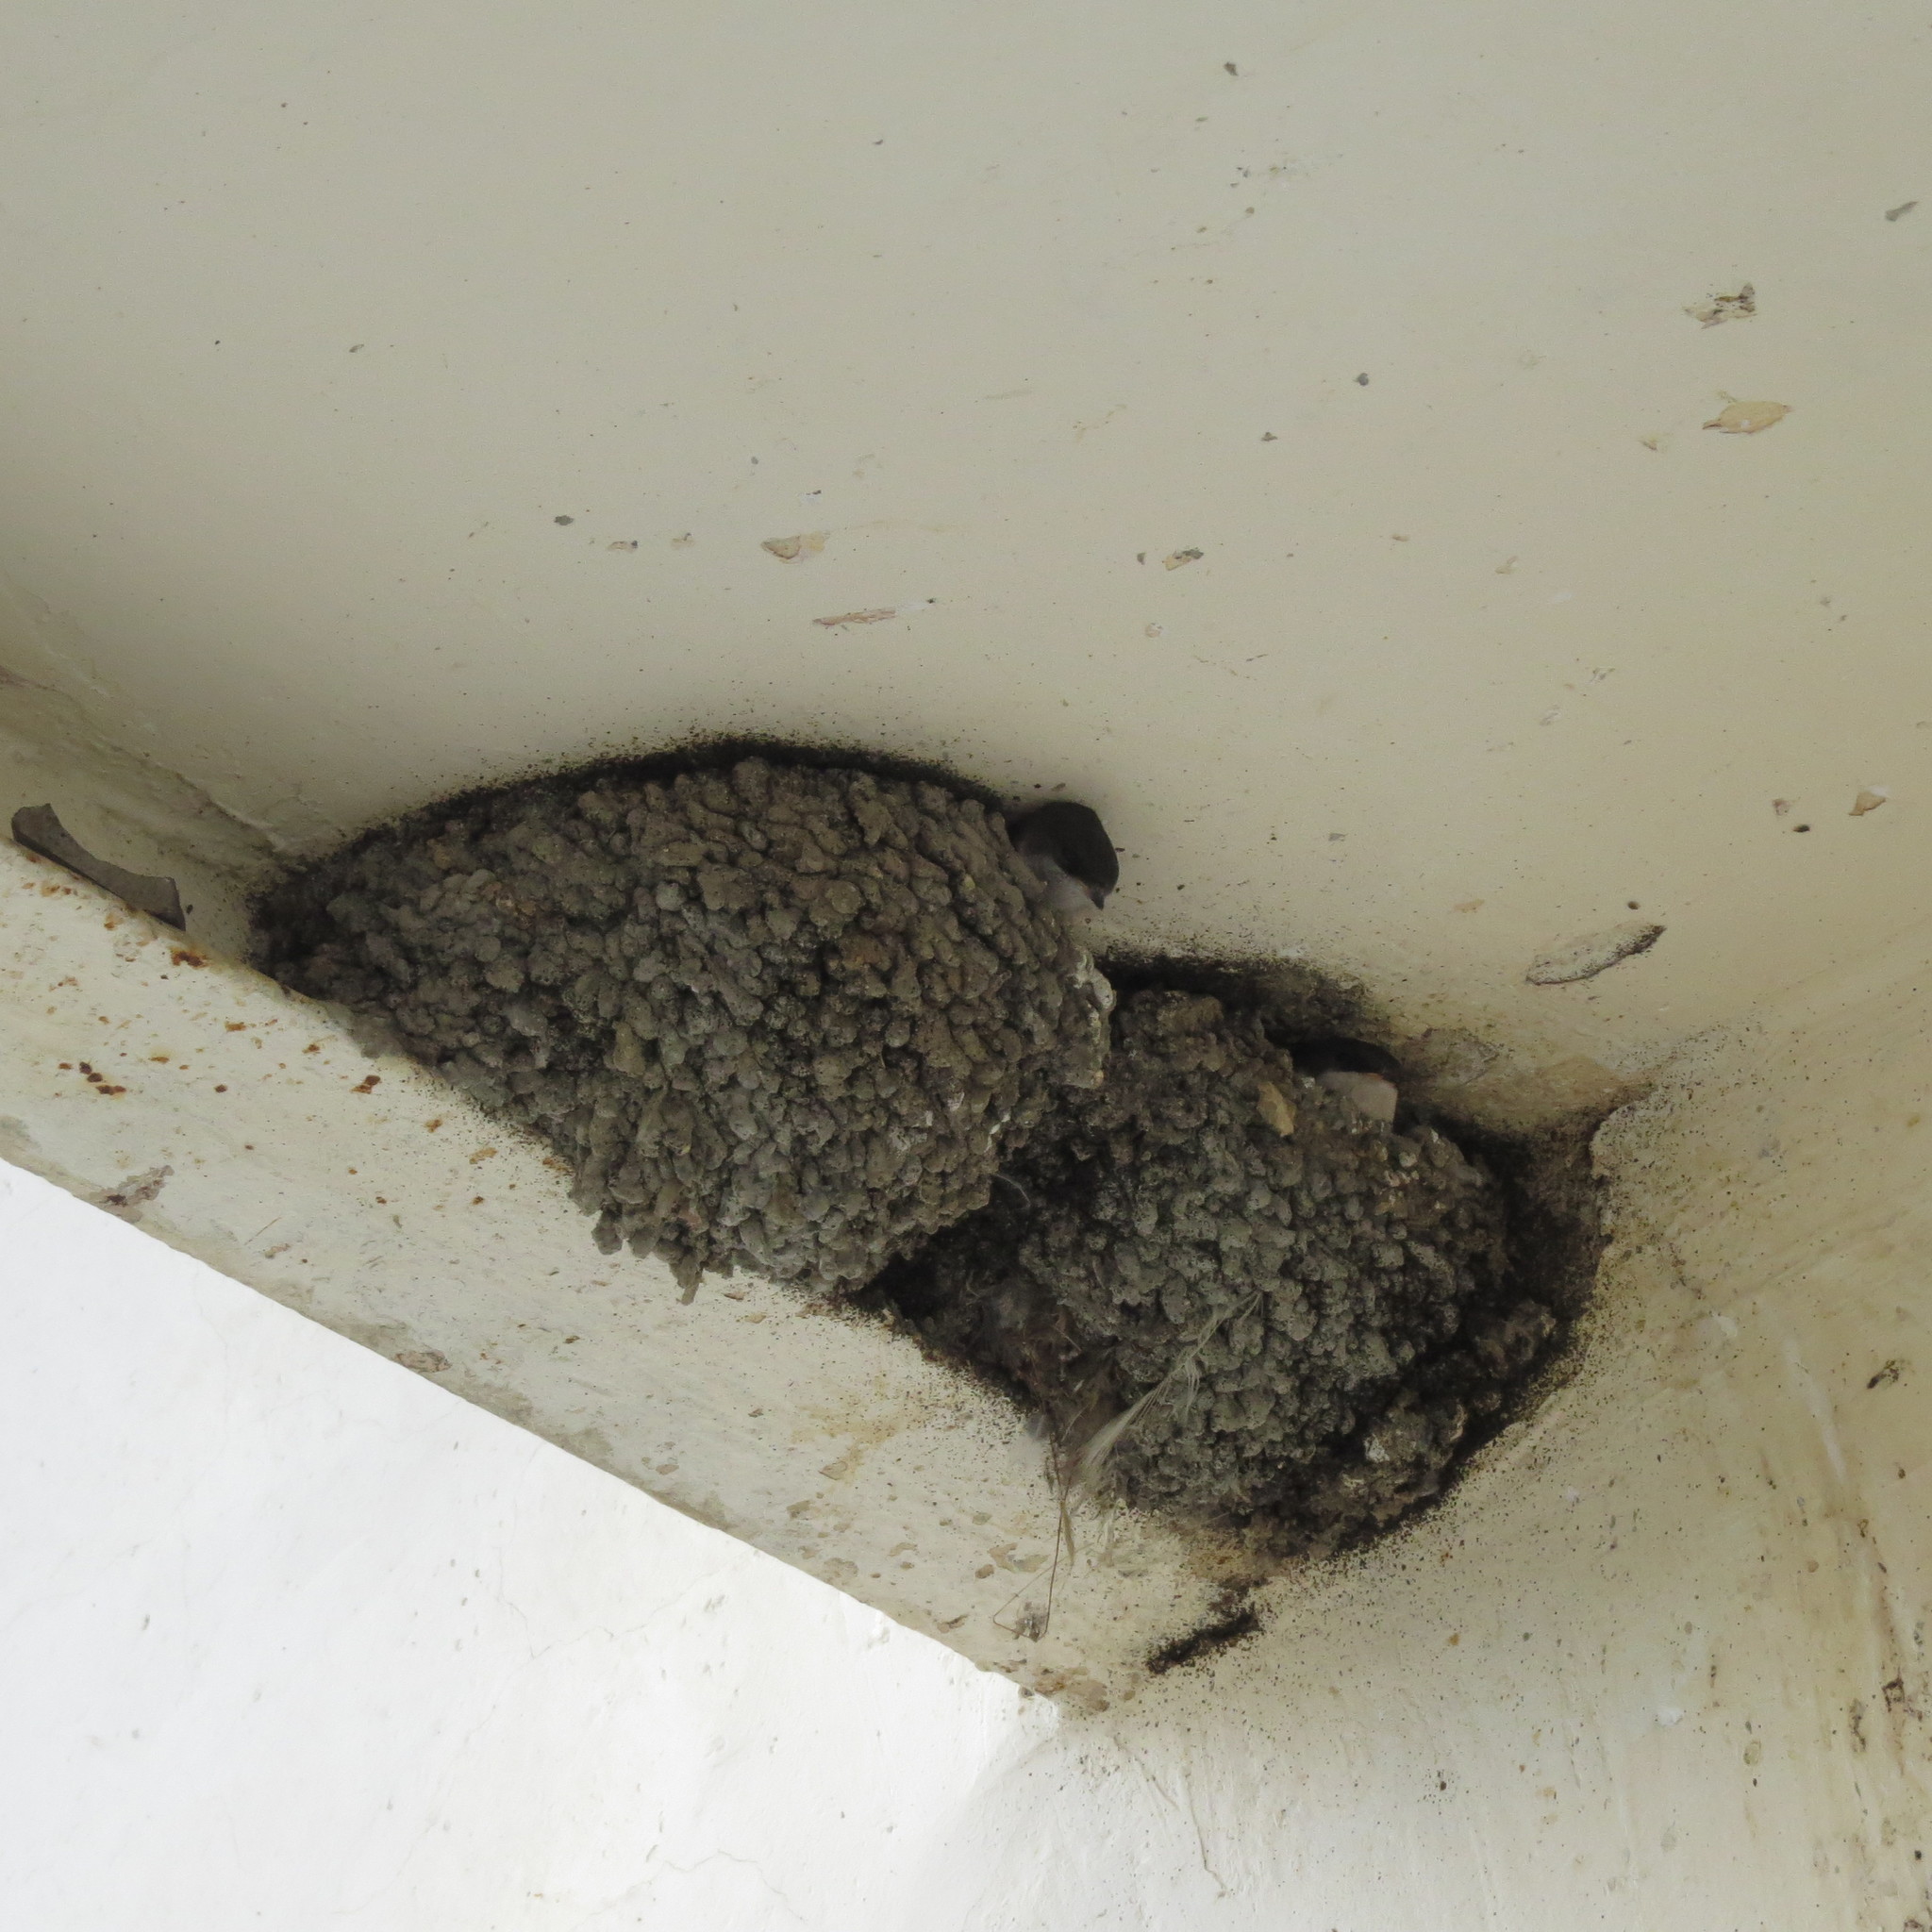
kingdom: Animalia
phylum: Chordata
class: Aves
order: Passeriformes
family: Hirundinidae
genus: Delichon
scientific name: Delichon urbicum
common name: Common house martin
